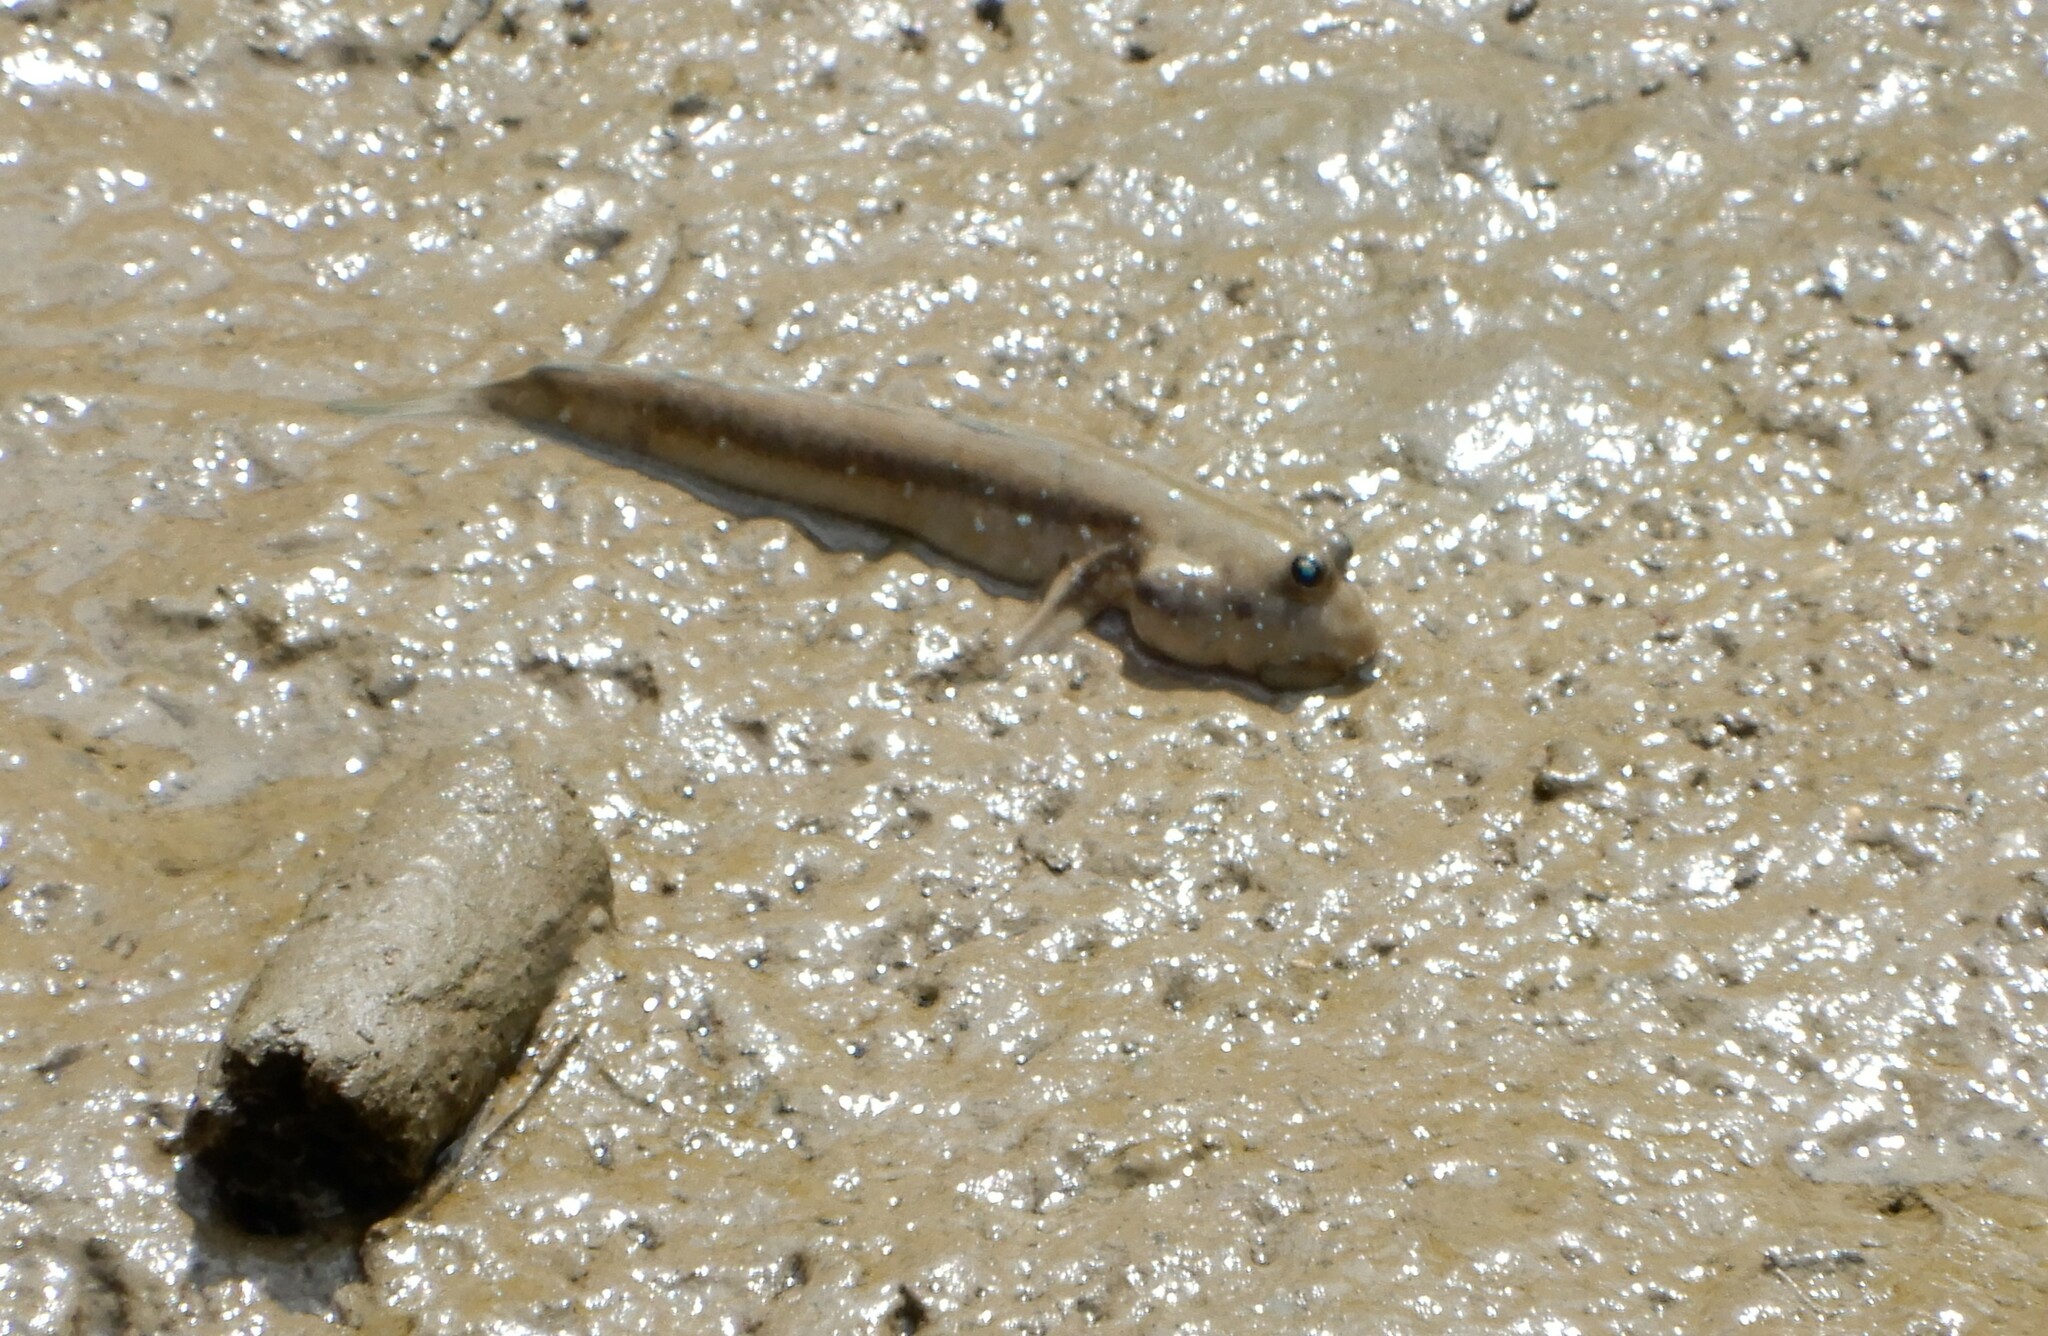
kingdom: Animalia
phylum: Chordata
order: Perciformes
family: Gobiidae
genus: Boleophthalmus
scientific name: Boleophthalmus pectinirostris
